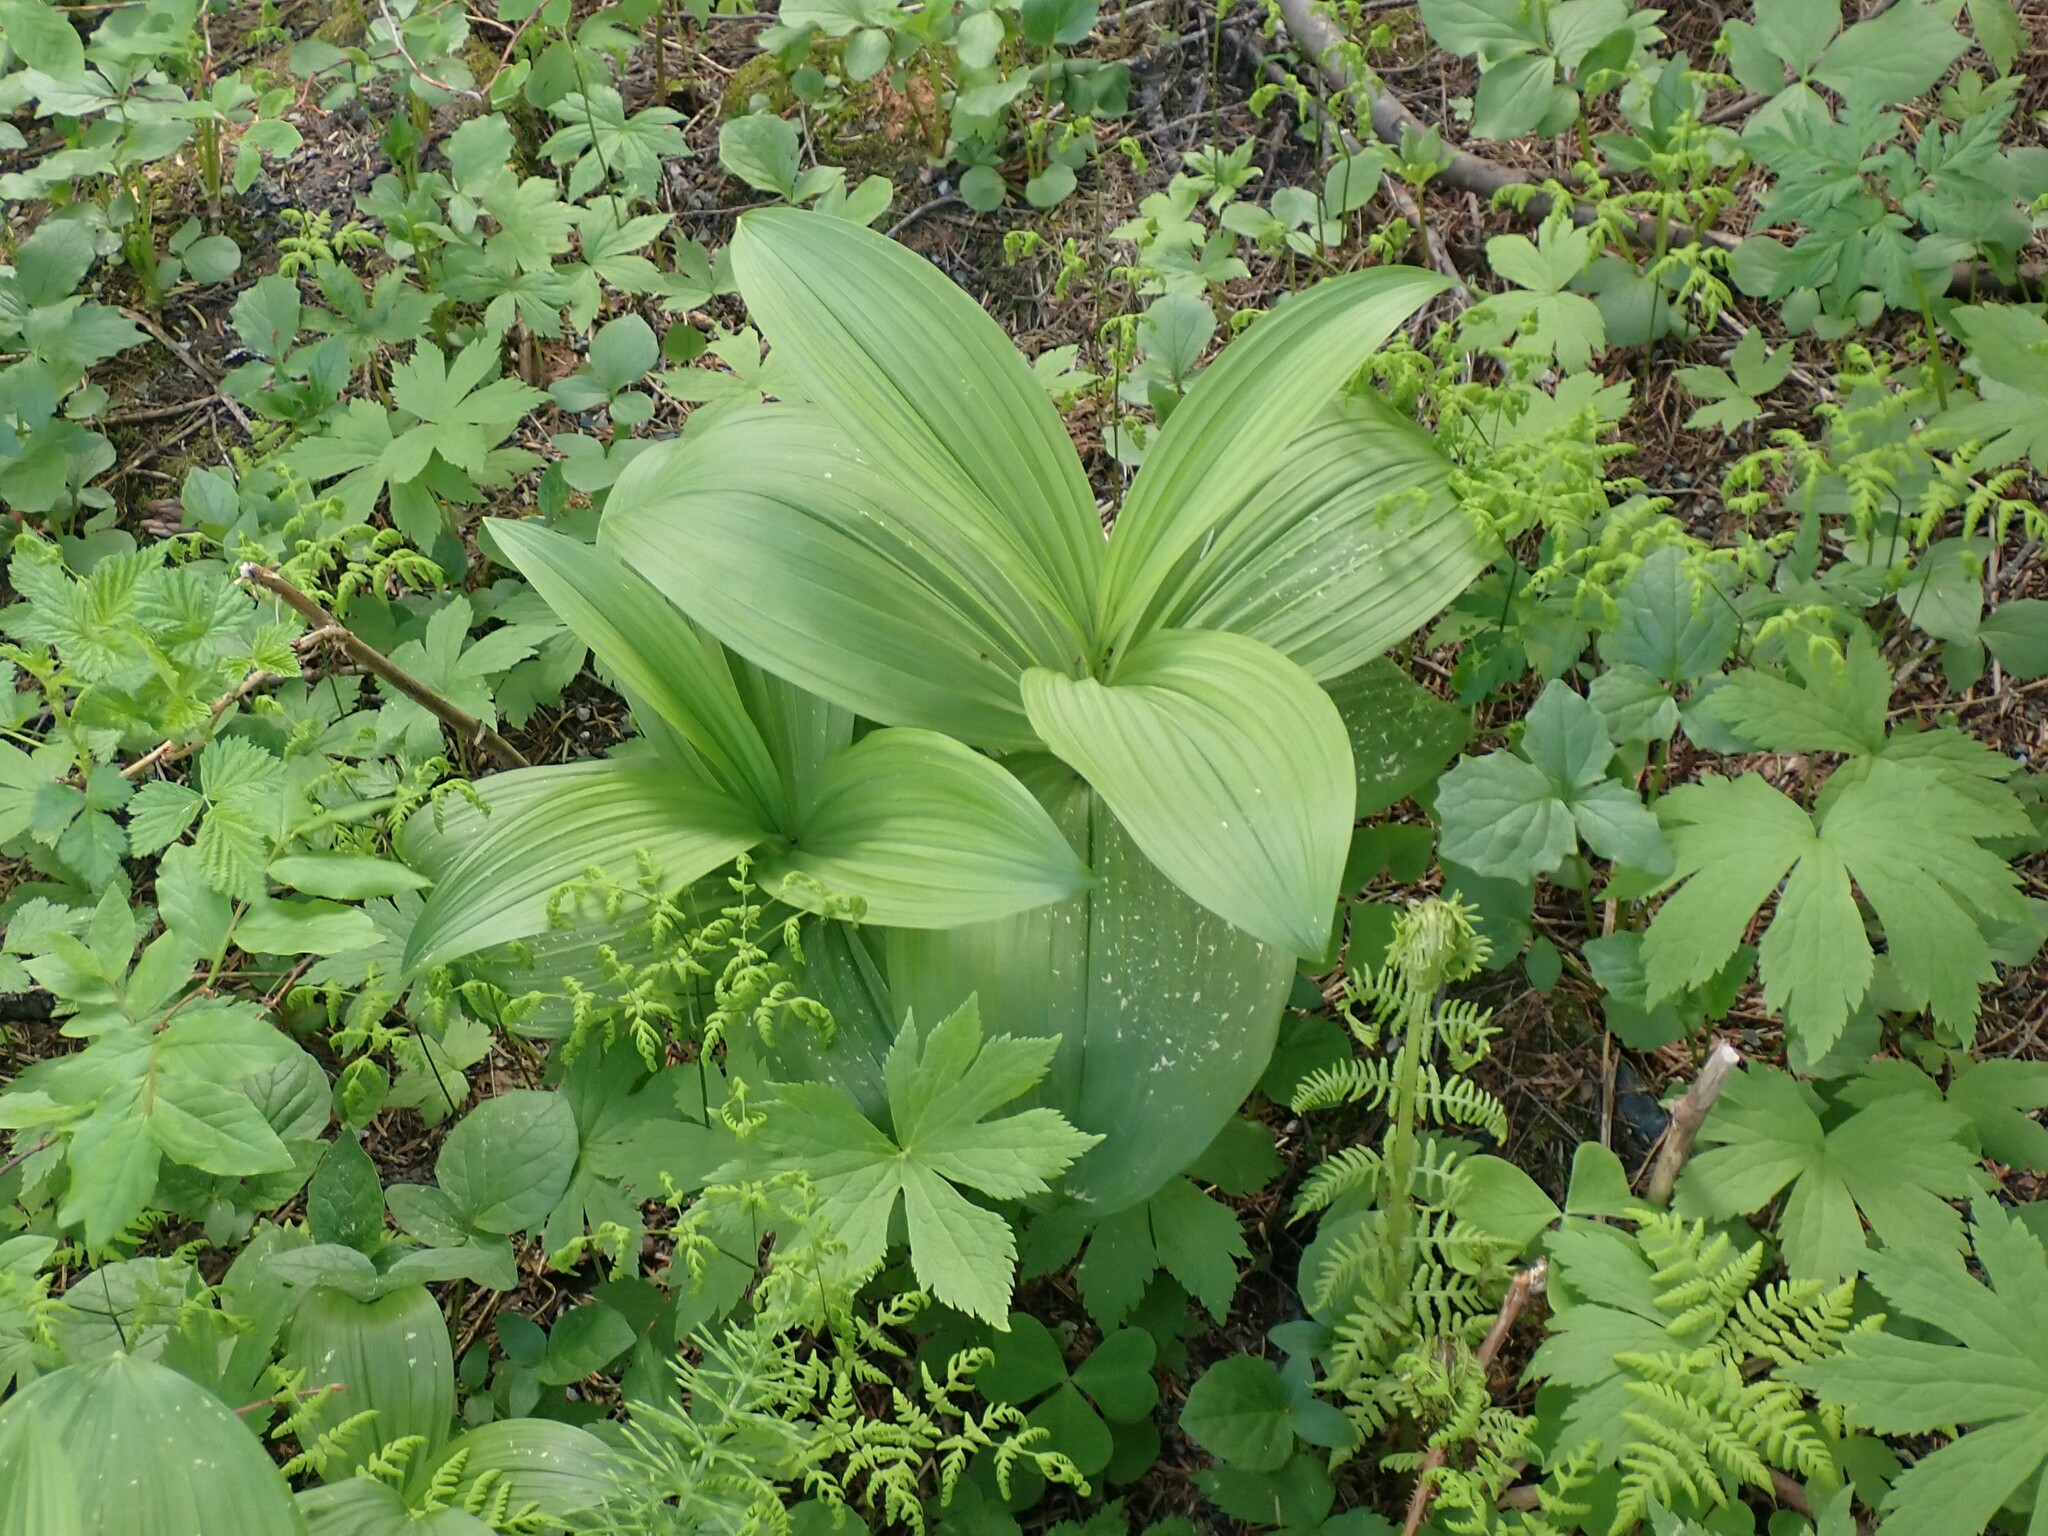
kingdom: Plantae
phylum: Tracheophyta
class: Liliopsida
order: Liliales
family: Melanthiaceae
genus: Veratrum
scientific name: Veratrum viride
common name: American false hellebore
